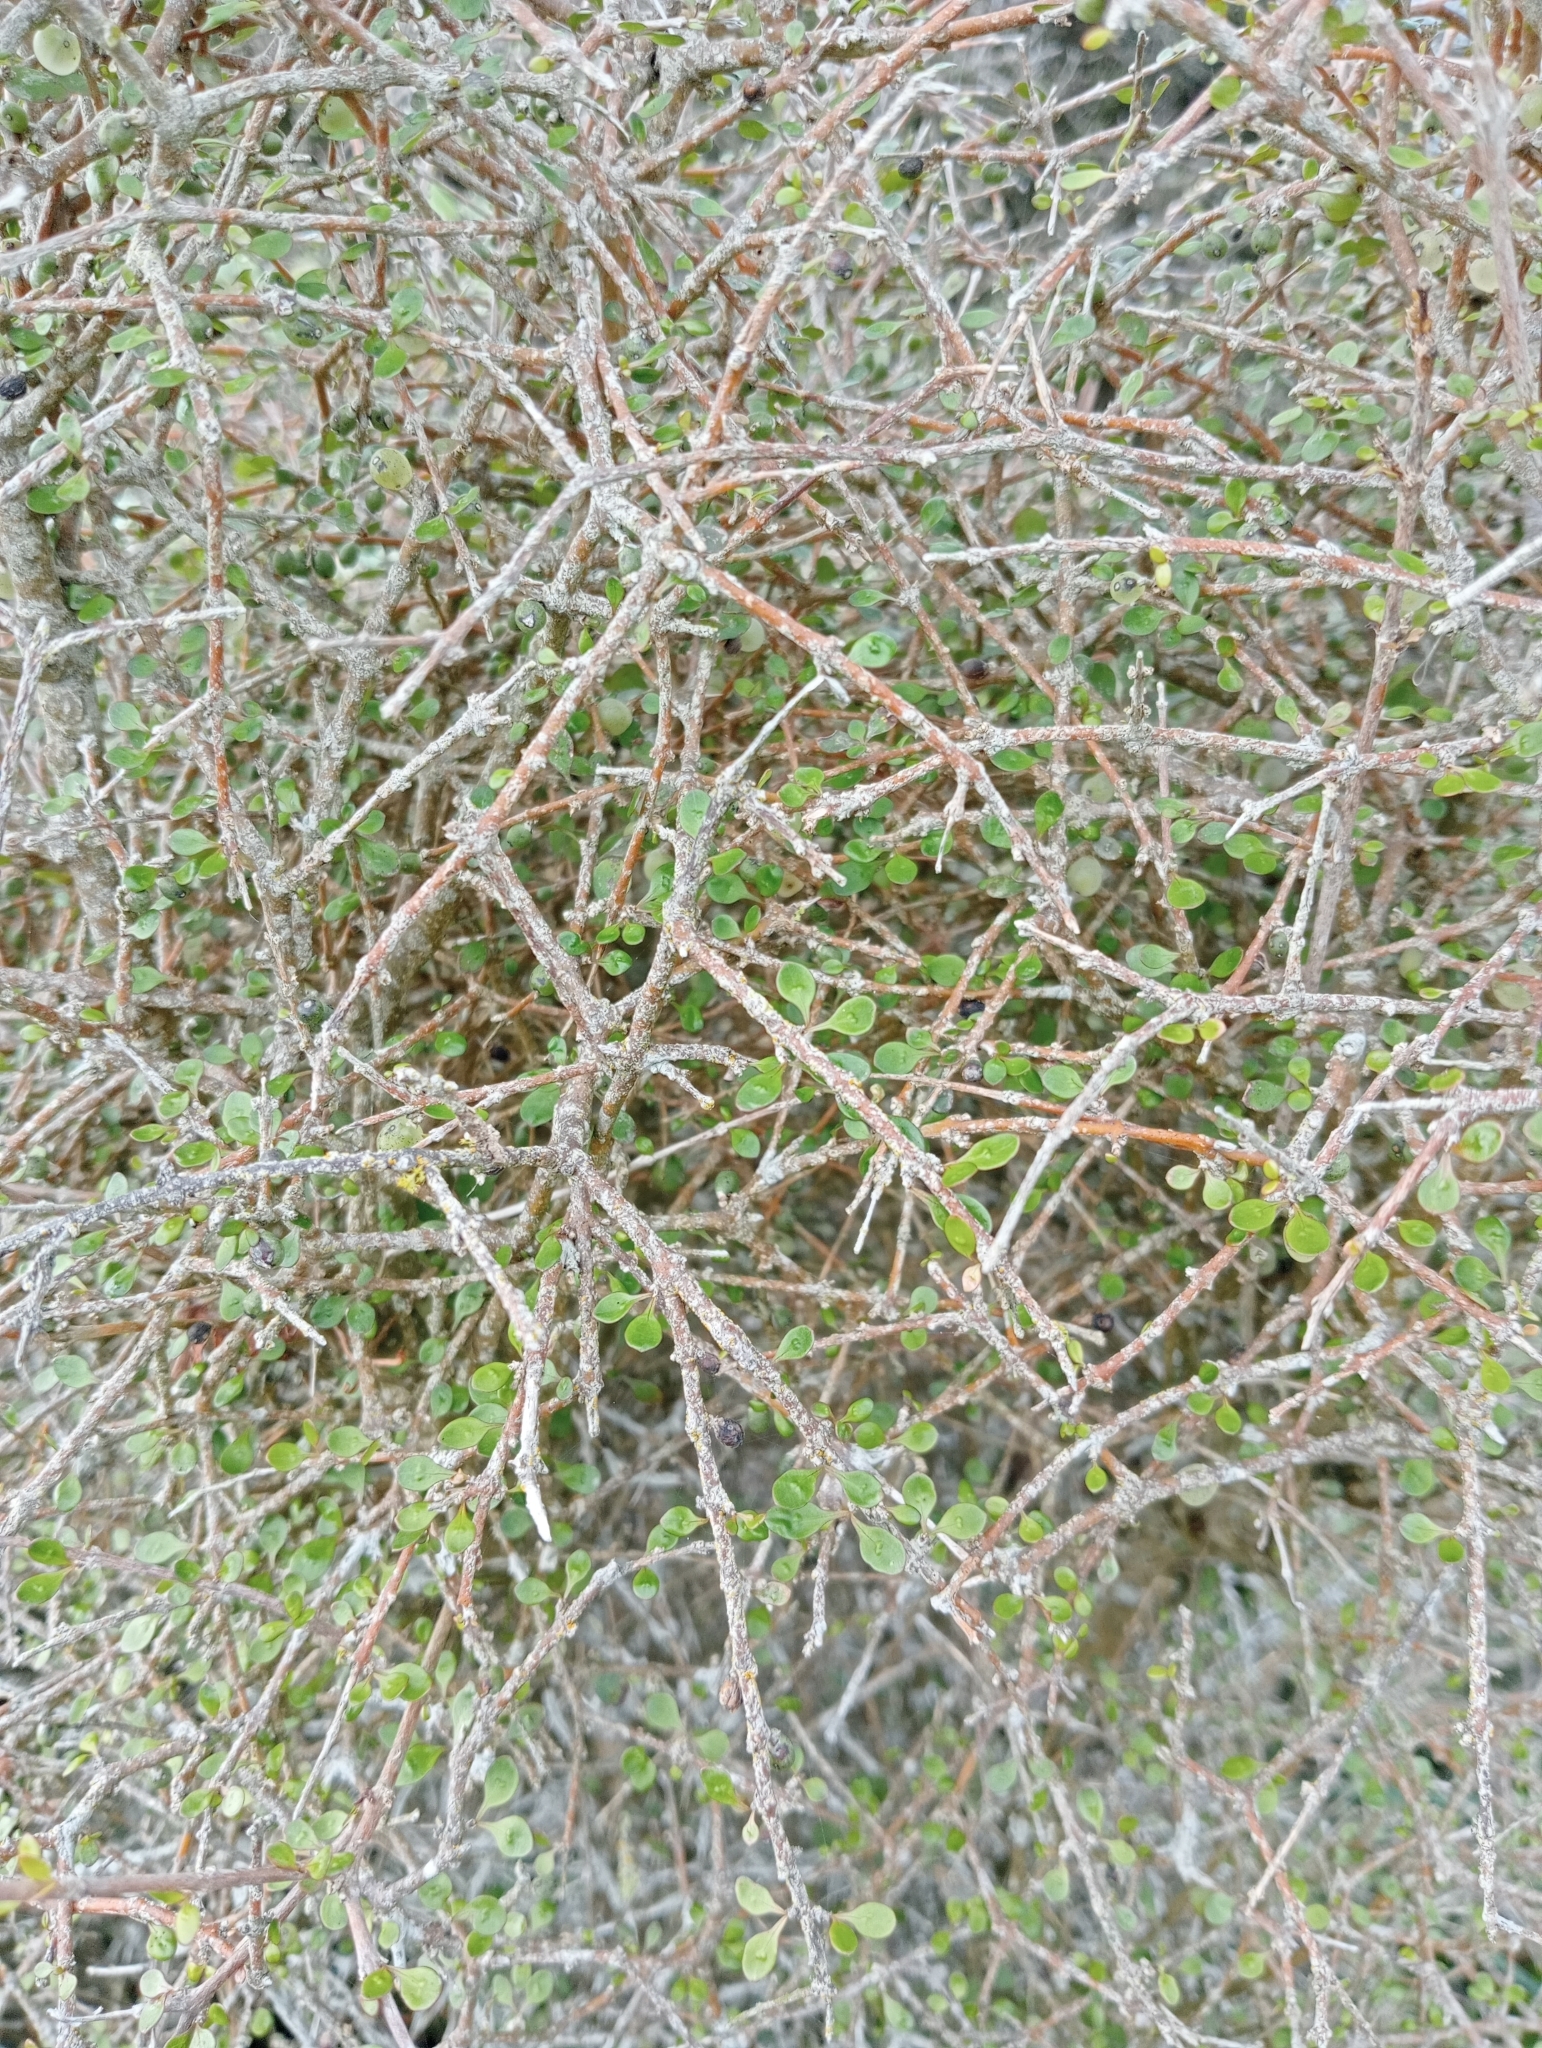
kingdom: Plantae
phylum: Tracheophyta
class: Magnoliopsida
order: Gentianales
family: Rubiaceae
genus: Coprosma
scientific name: Coprosma virescens
